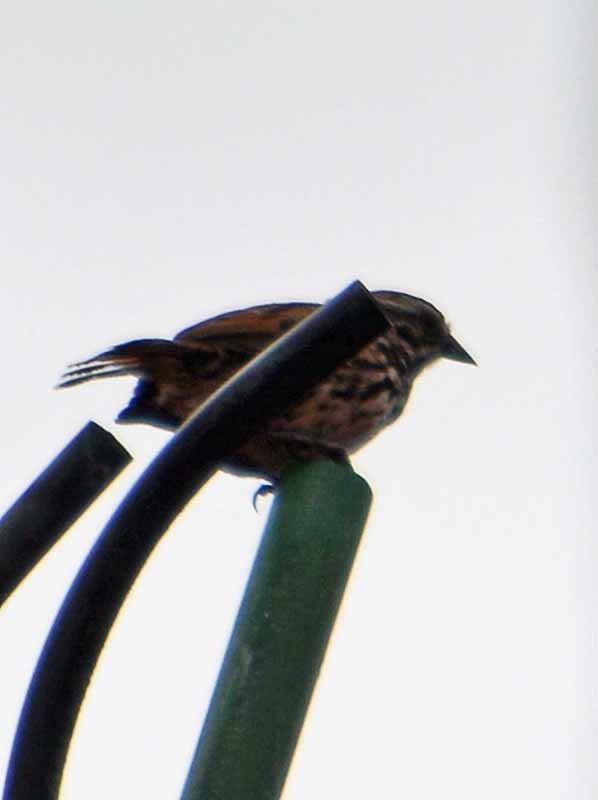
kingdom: Animalia
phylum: Chordata
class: Aves
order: Passeriformes
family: Passerellidae
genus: Melospiza
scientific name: Melospiza melodia
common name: Song sparrow
